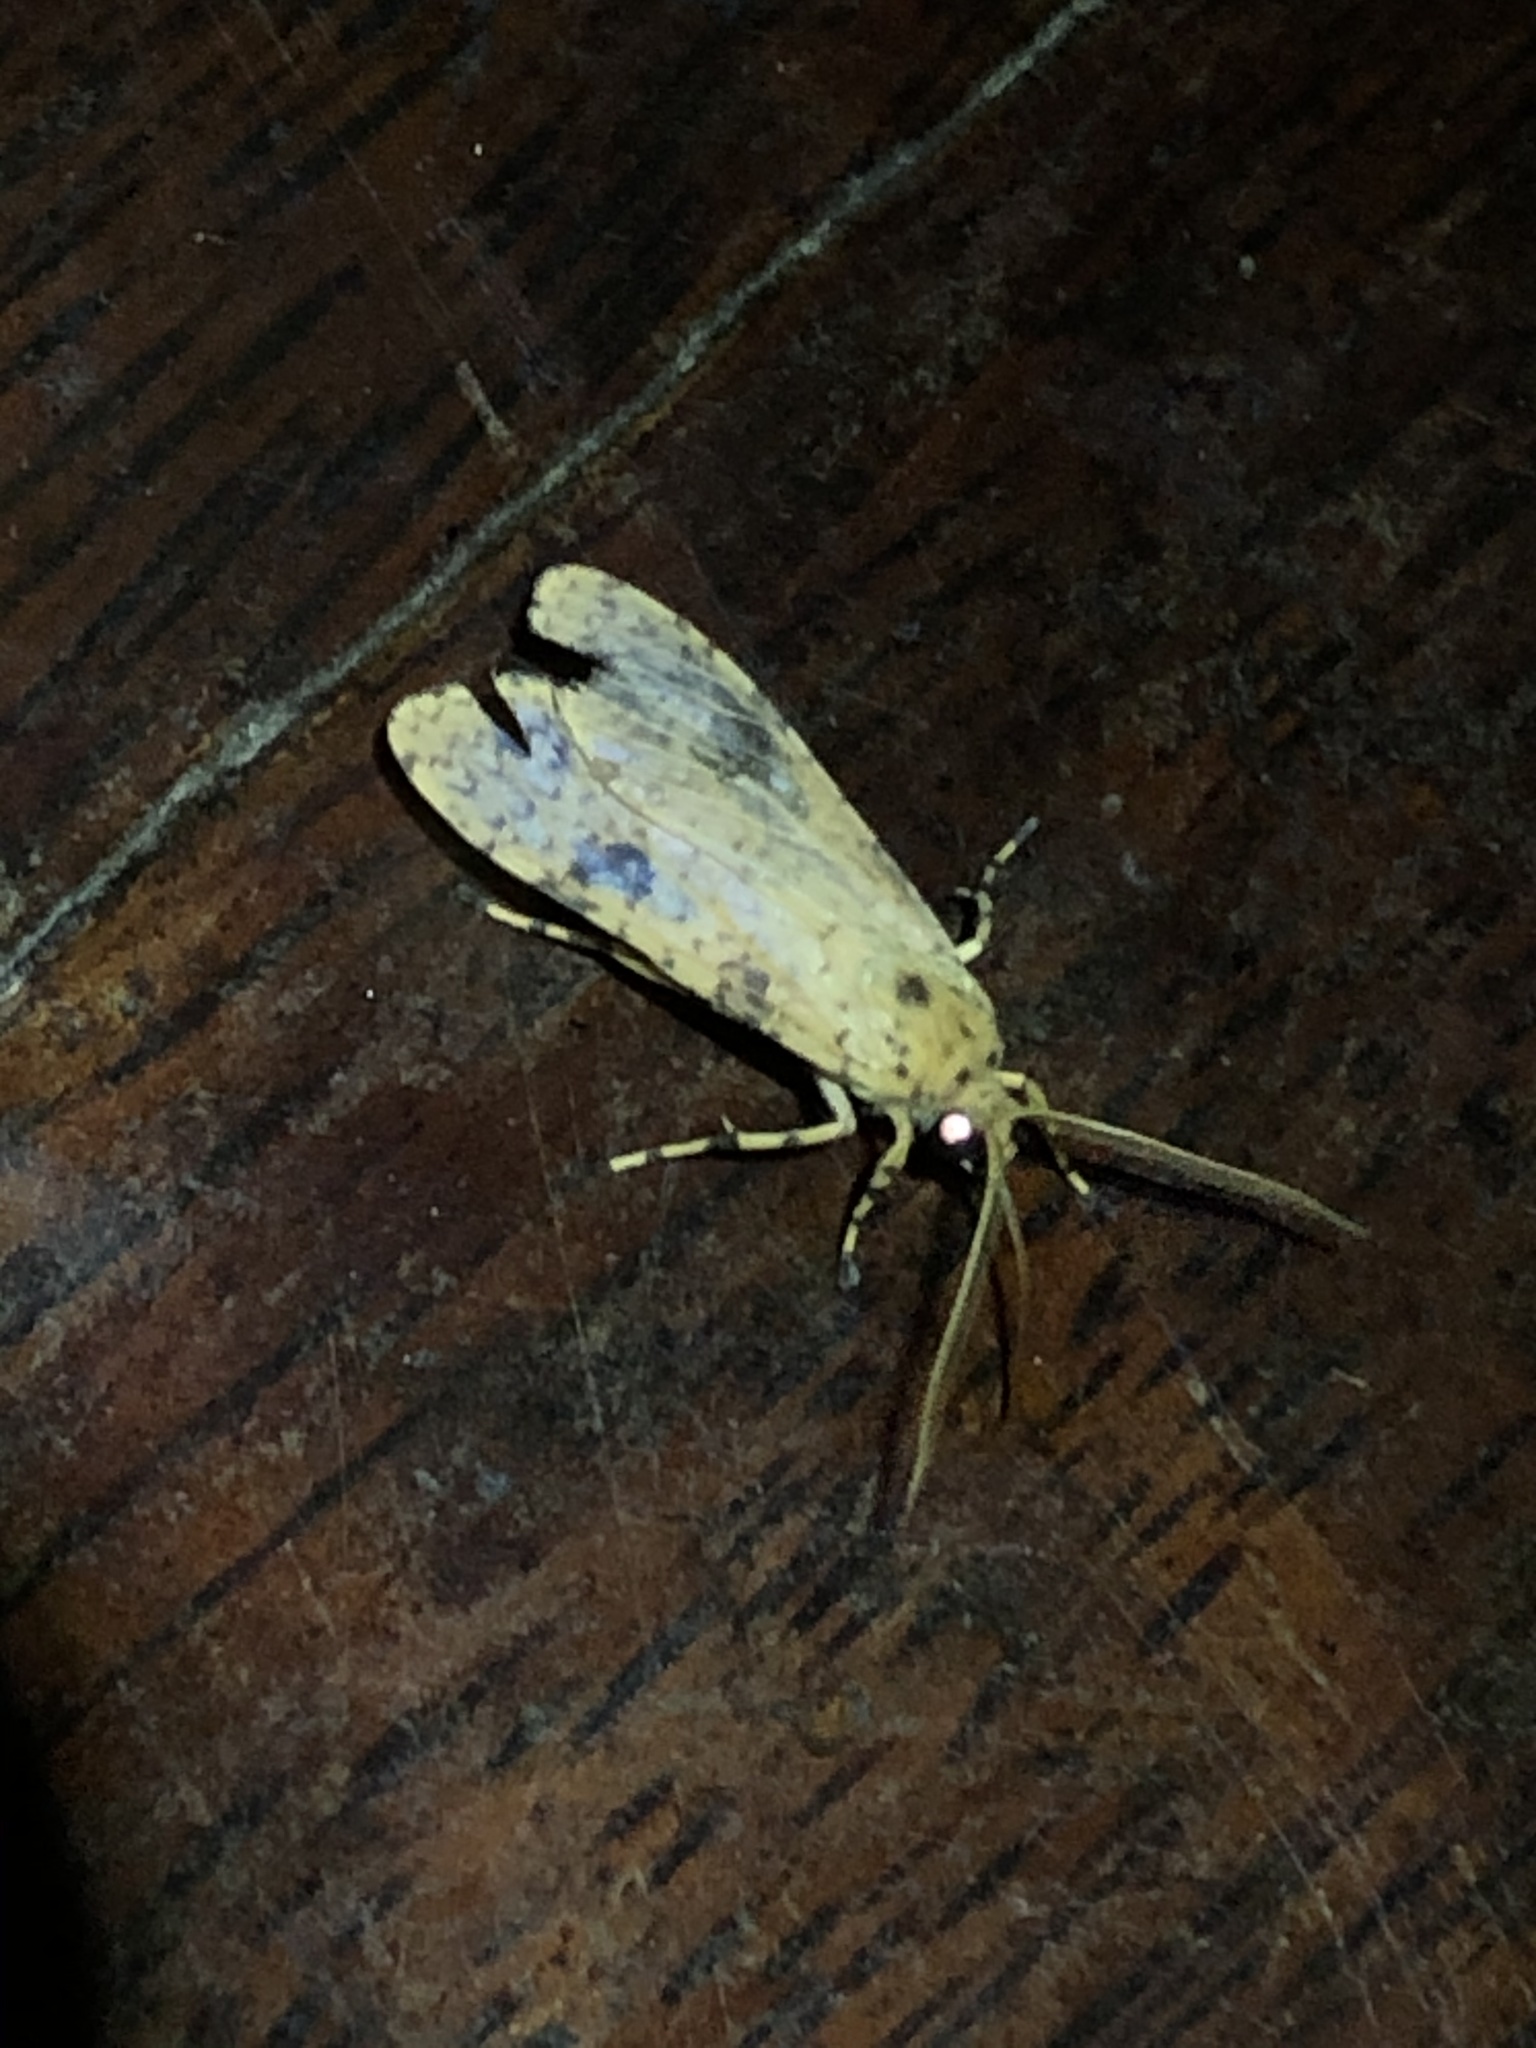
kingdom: Animalia
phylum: Arthropoda
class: Insecta
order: Lepidoptera
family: Erebidae
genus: Lophocampa
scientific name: Lophocampa modesta
